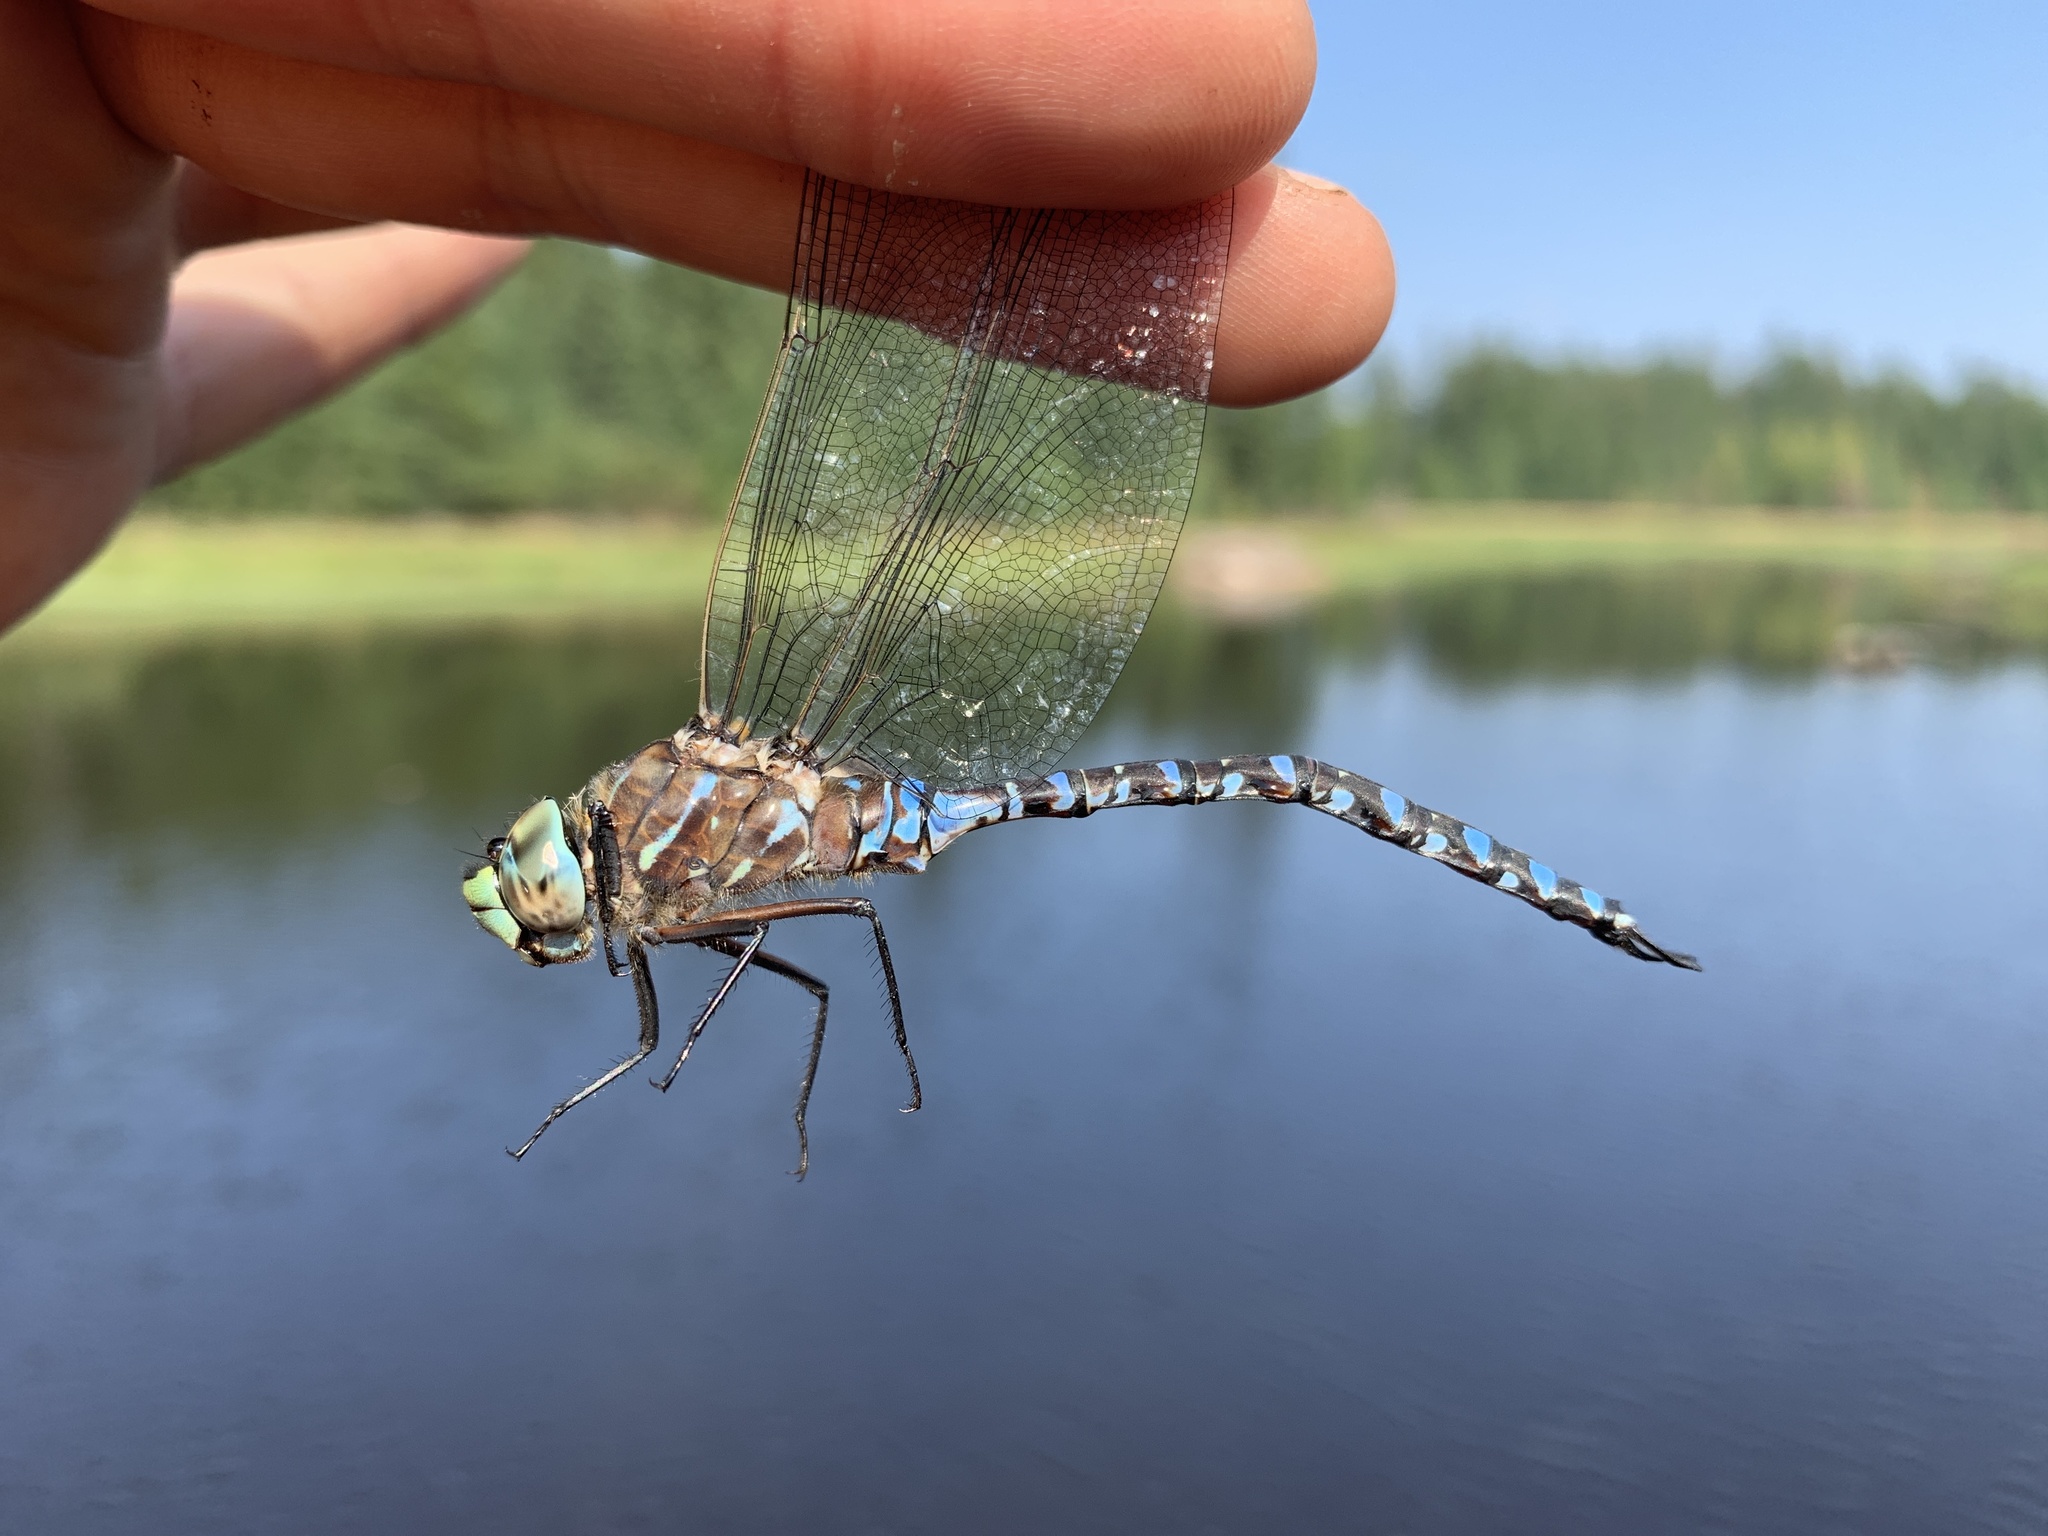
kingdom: Animalia
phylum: Arthropoda
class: Insecta
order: Odonata
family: Aeshnidae
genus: Aeshna
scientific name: Aeshna interrupta
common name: Variable darner
